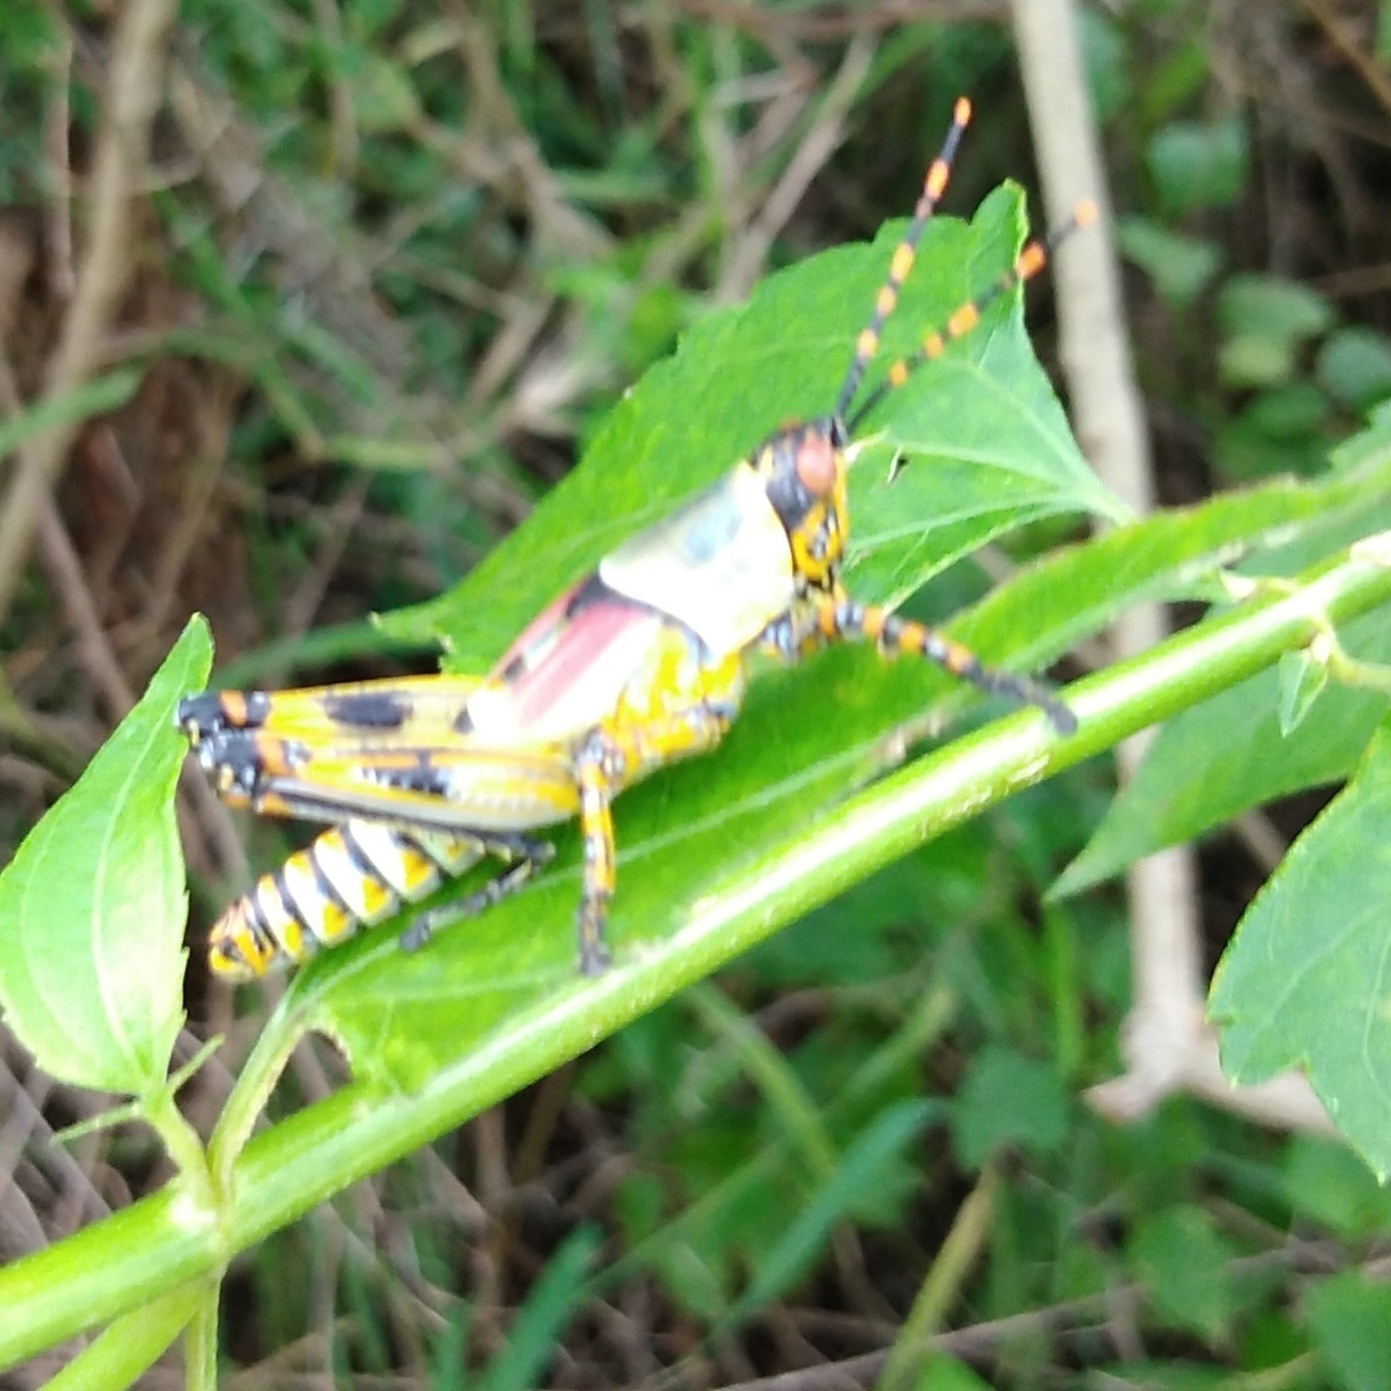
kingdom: Animalia
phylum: Arthropoda
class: Insecta
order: Orthoptera
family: Pyrgomorphidae
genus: Zonocerus
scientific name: Zonocerus elegans
